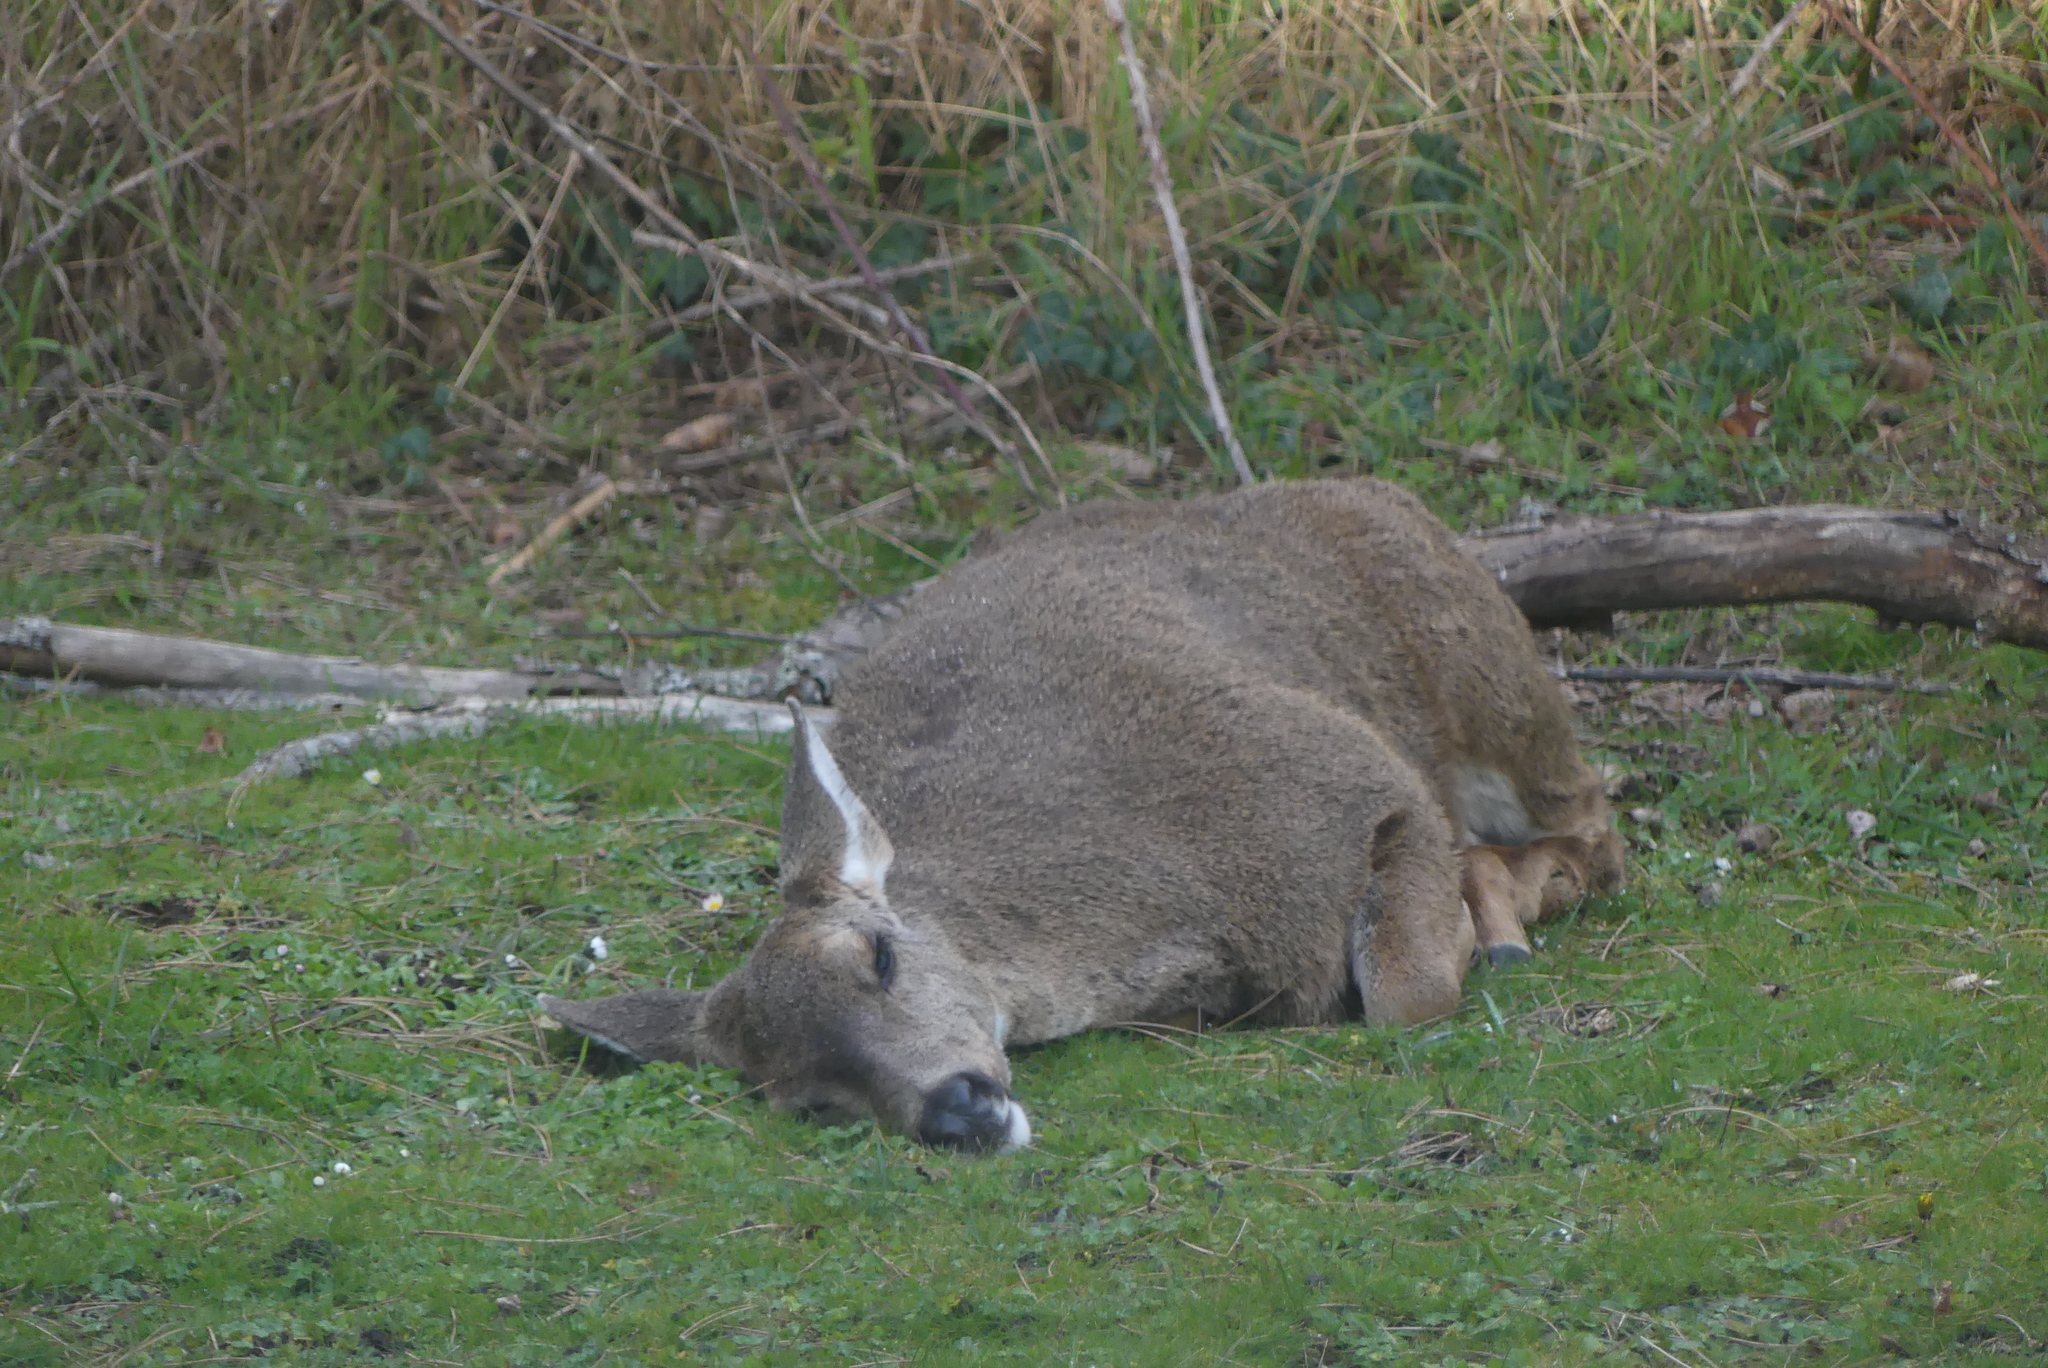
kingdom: Animalia
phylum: Chordata
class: Mammalia
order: Artiodactyla
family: Cervidae
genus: Odocoileus
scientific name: Odocoileus hemionus
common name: Mule deer
